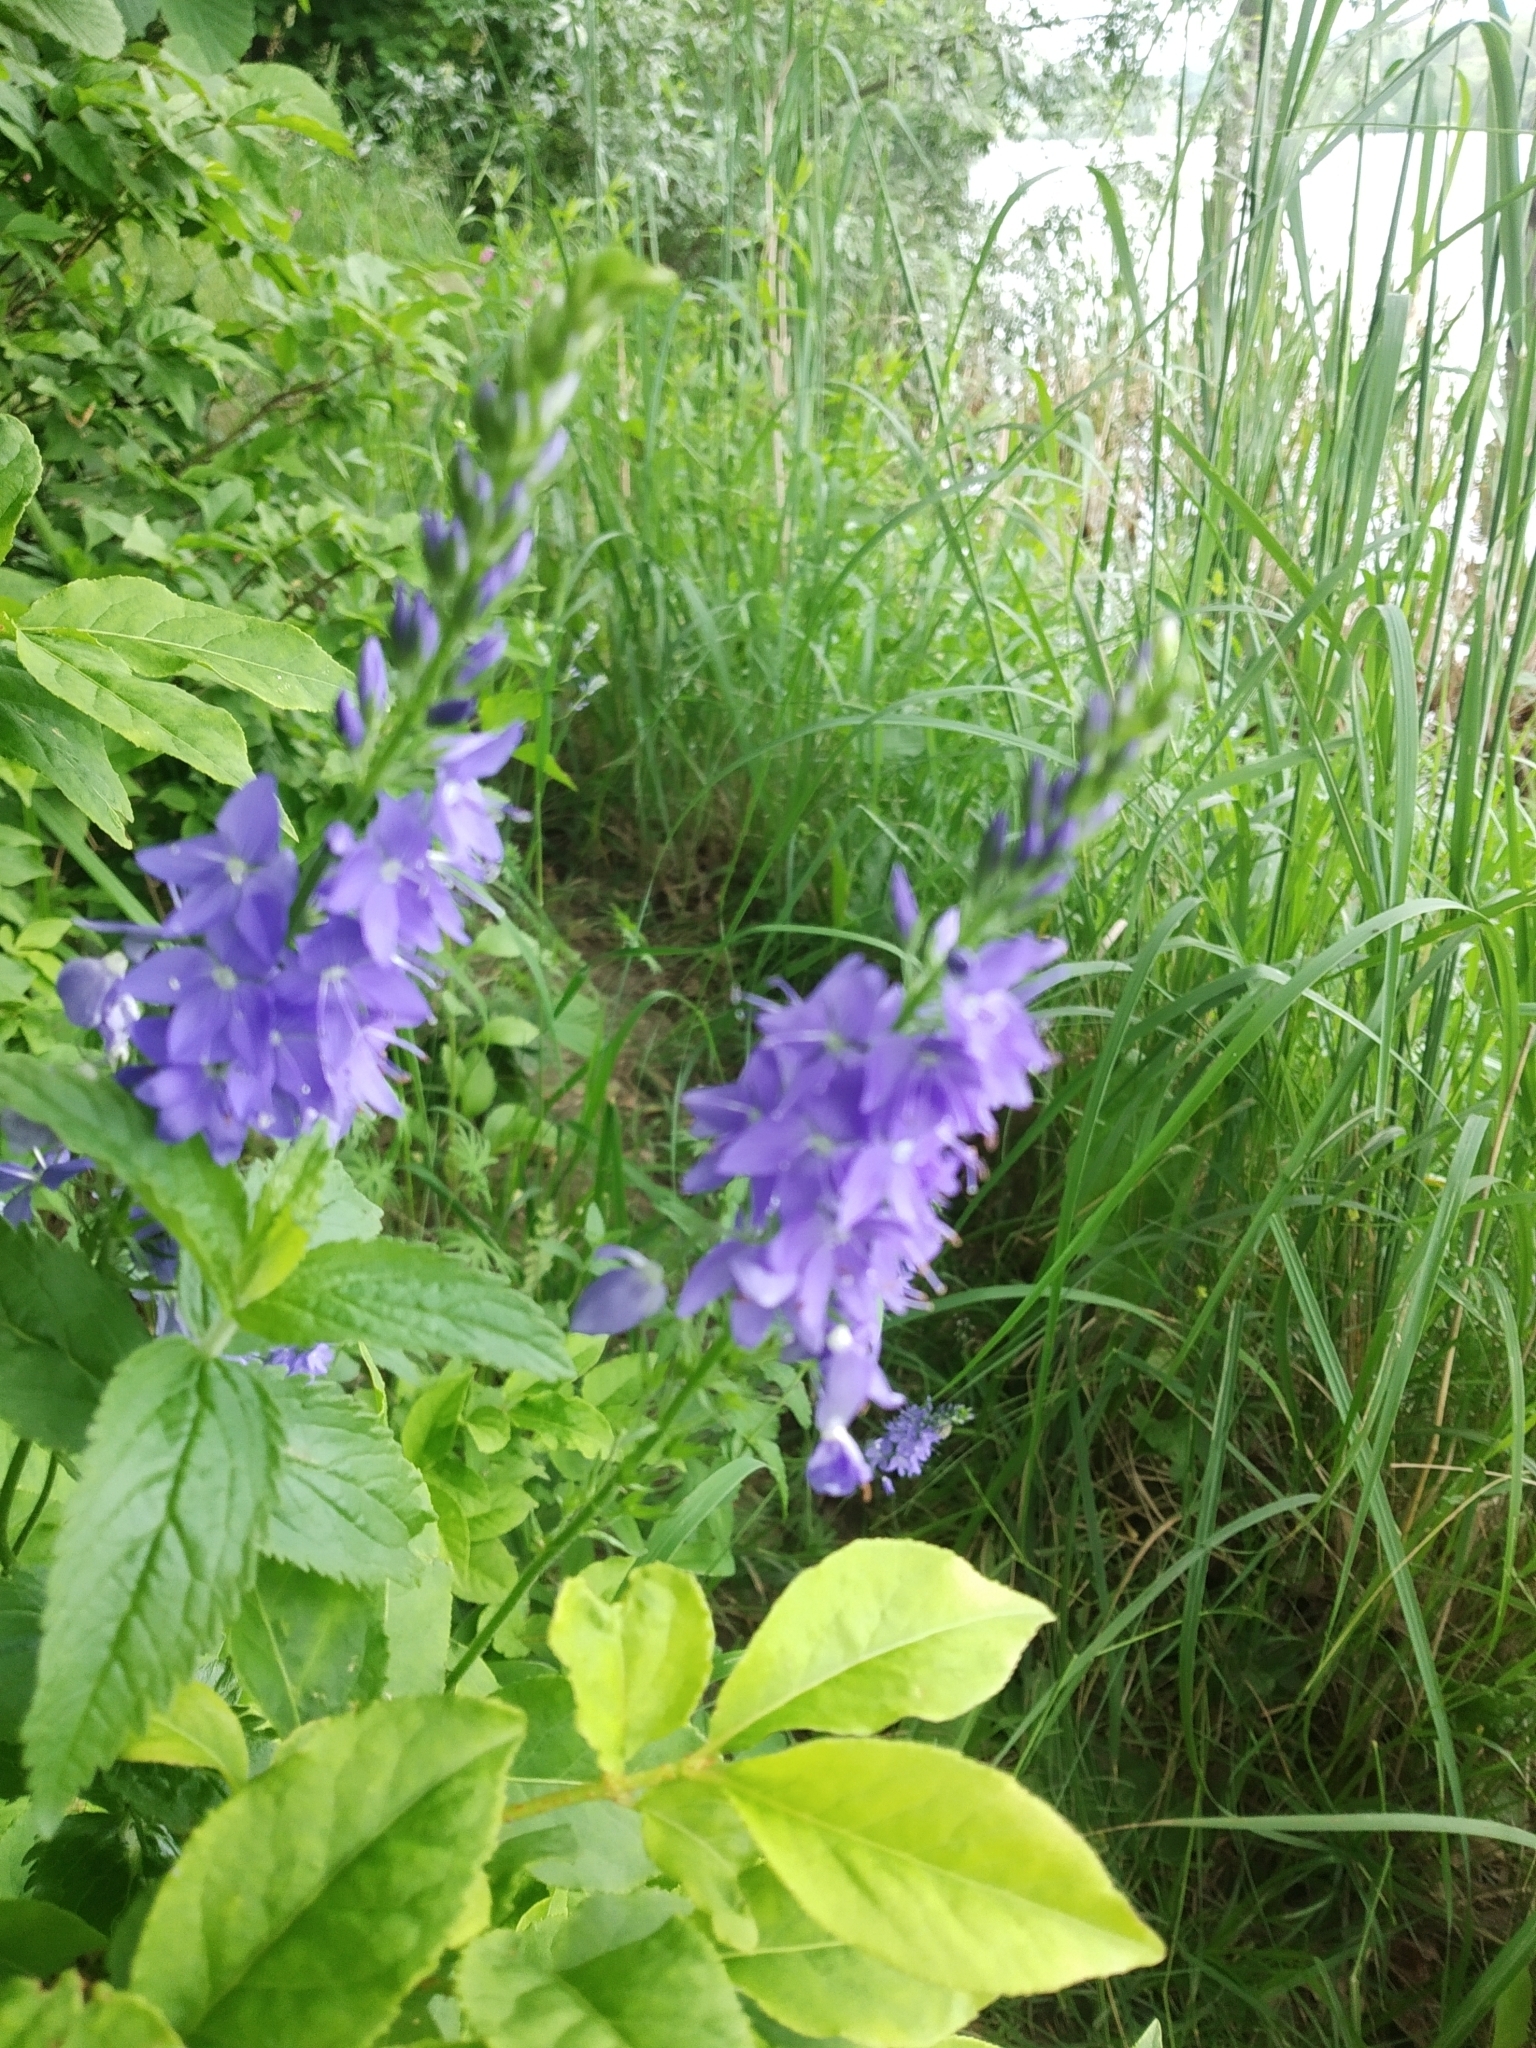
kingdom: Plantae
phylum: Tracheophyta
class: Magnoliopsida
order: Lamiales
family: Plantaginaceae
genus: Veronica
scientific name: Veronica teucrium
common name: Large speedwell
